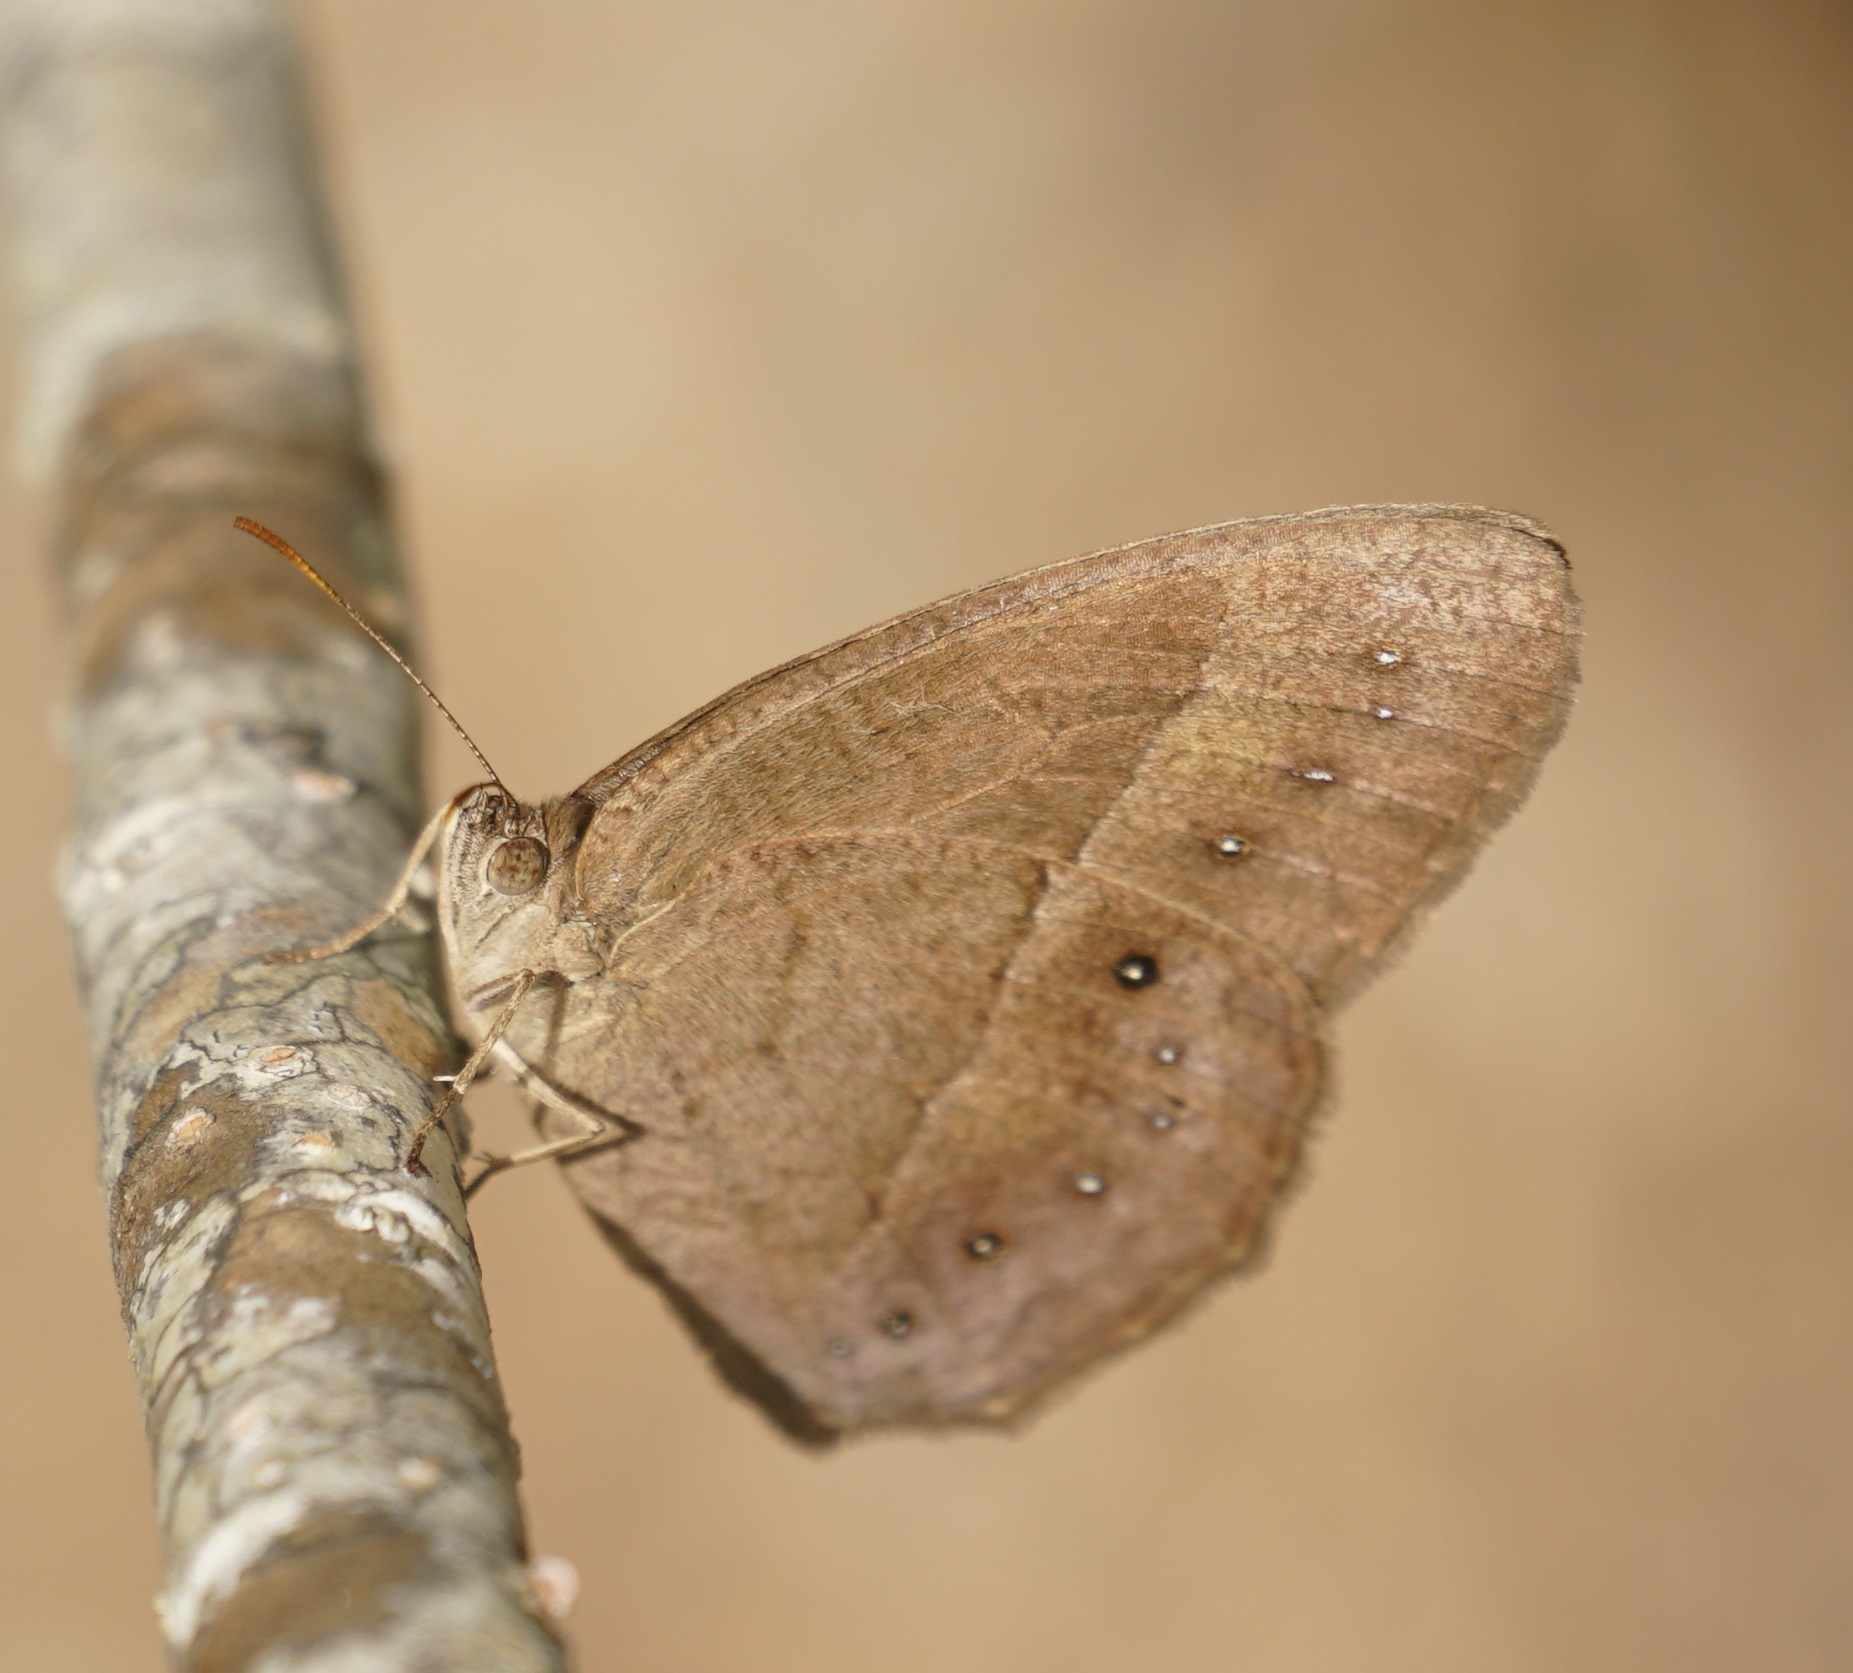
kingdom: Animalia
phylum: Arthropoda
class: Insecta
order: Lepidoptera
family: Nymphalidae
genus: Mycalesis
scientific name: Mycalesis terminus
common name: Orange bushbrown
